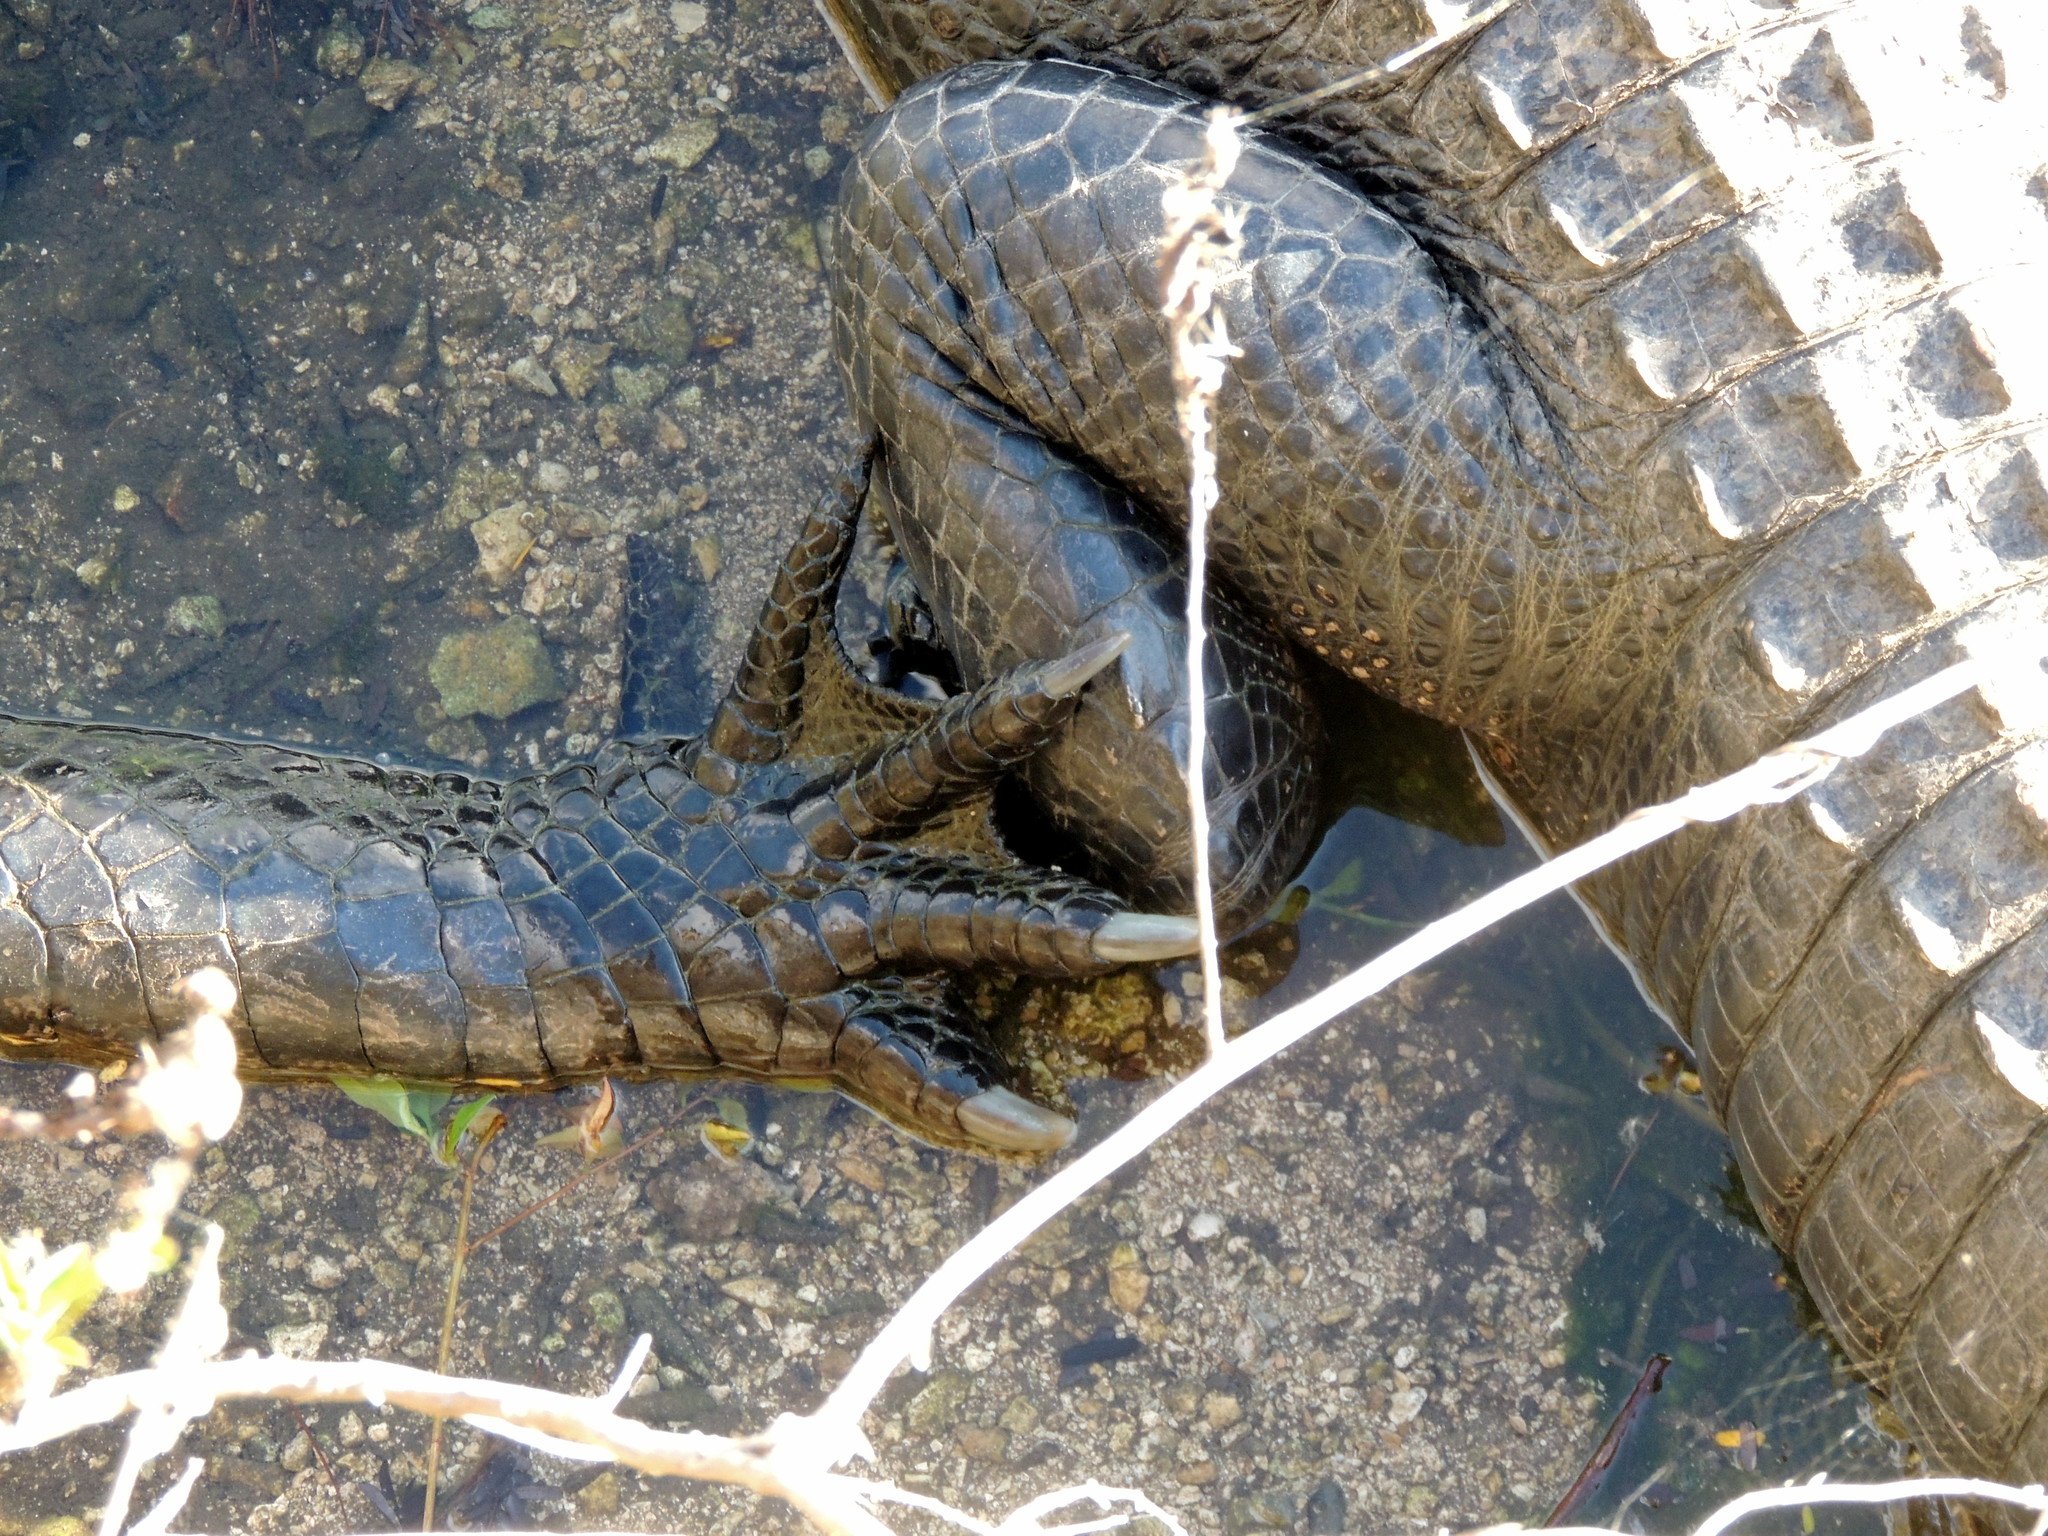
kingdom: Animalia
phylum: Chordata
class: Crocodylia
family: Alligatoridae
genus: Alligator
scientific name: Alligator mississippiensis
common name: American alligator
